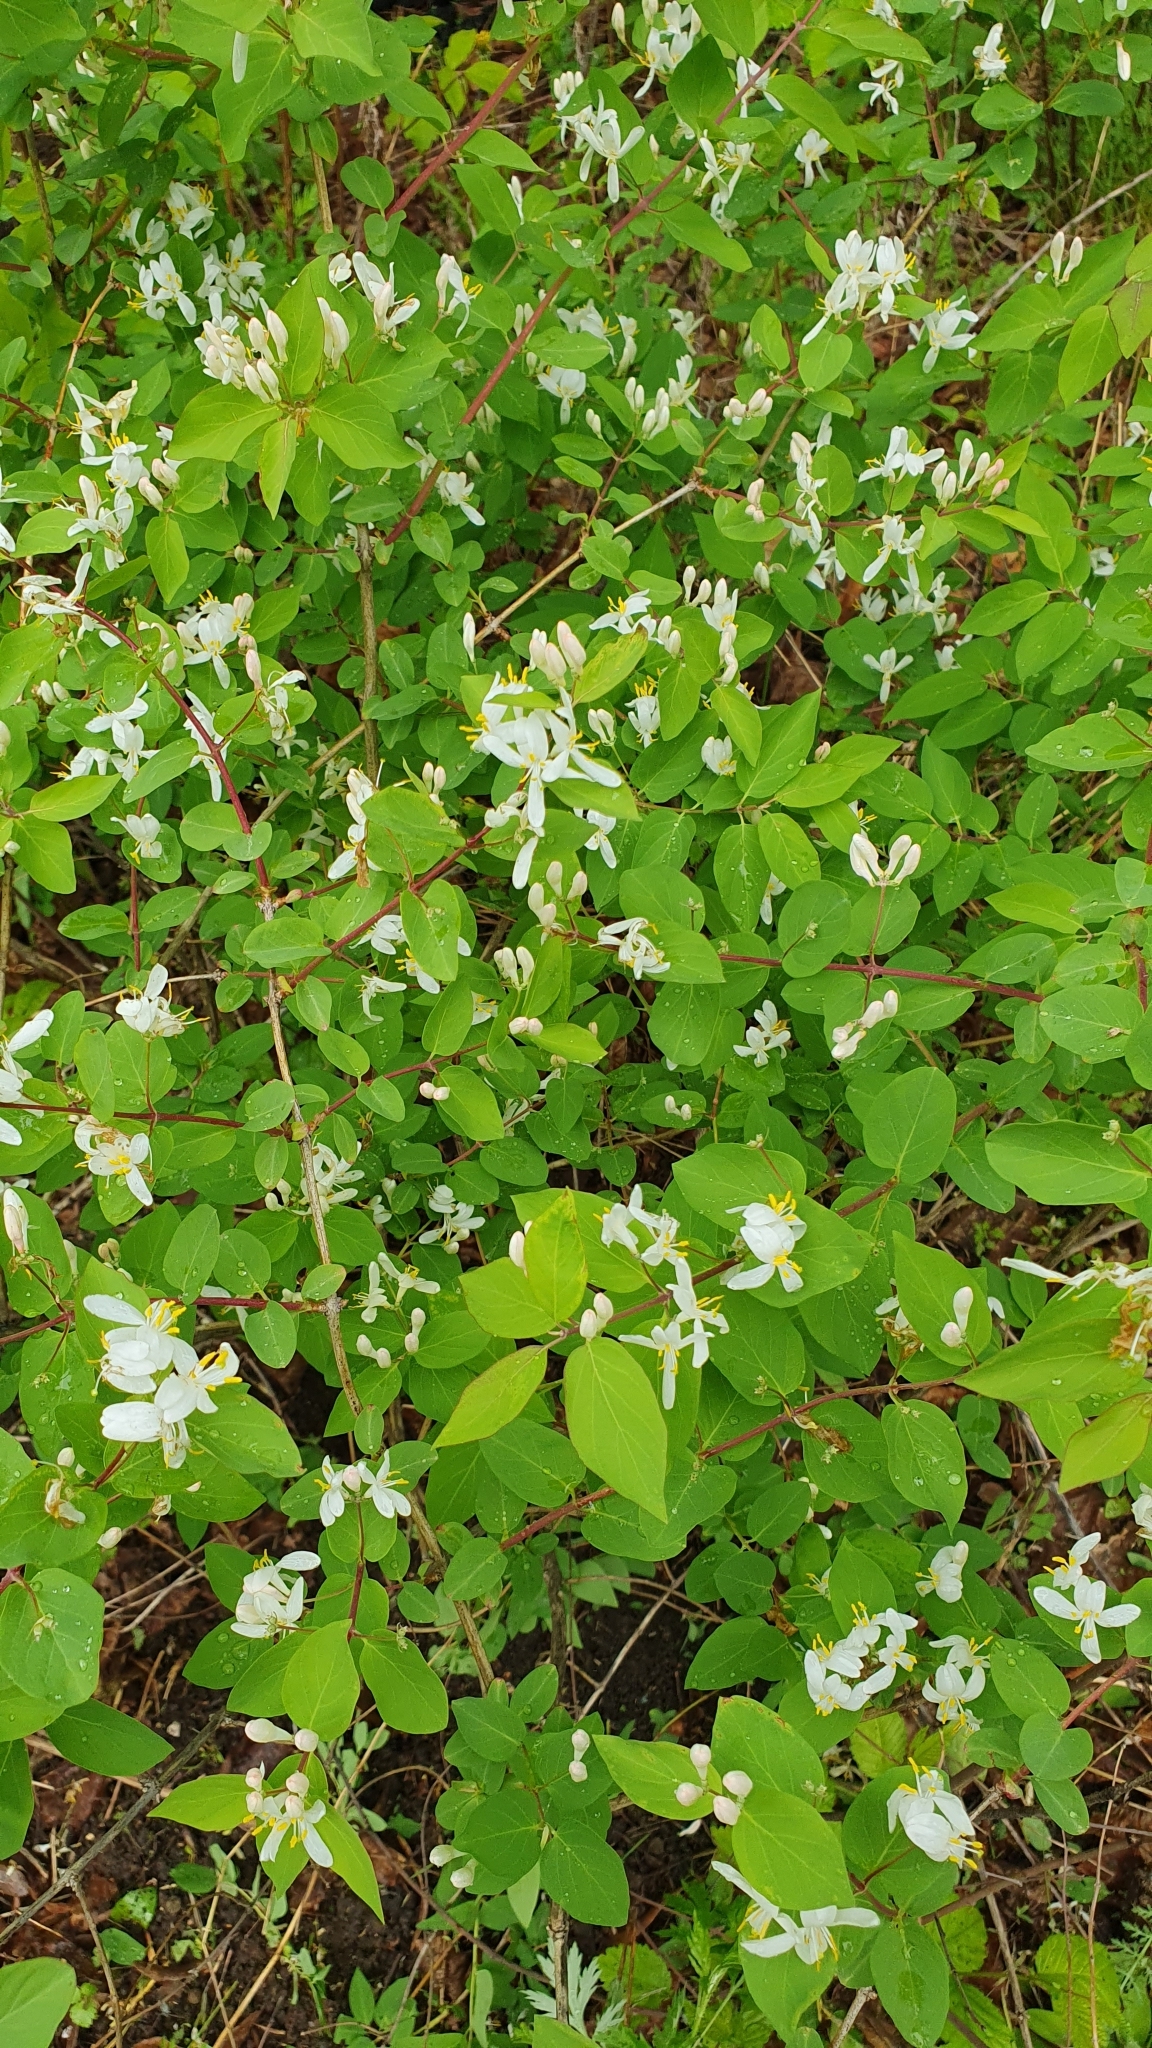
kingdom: Plantae
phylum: Tracheophyta
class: Magnoliopsida
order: Dipsacales
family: Caprifoliaceae
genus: Lonicera
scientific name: Lonicera tatarica
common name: Tatarian honeysuckle
